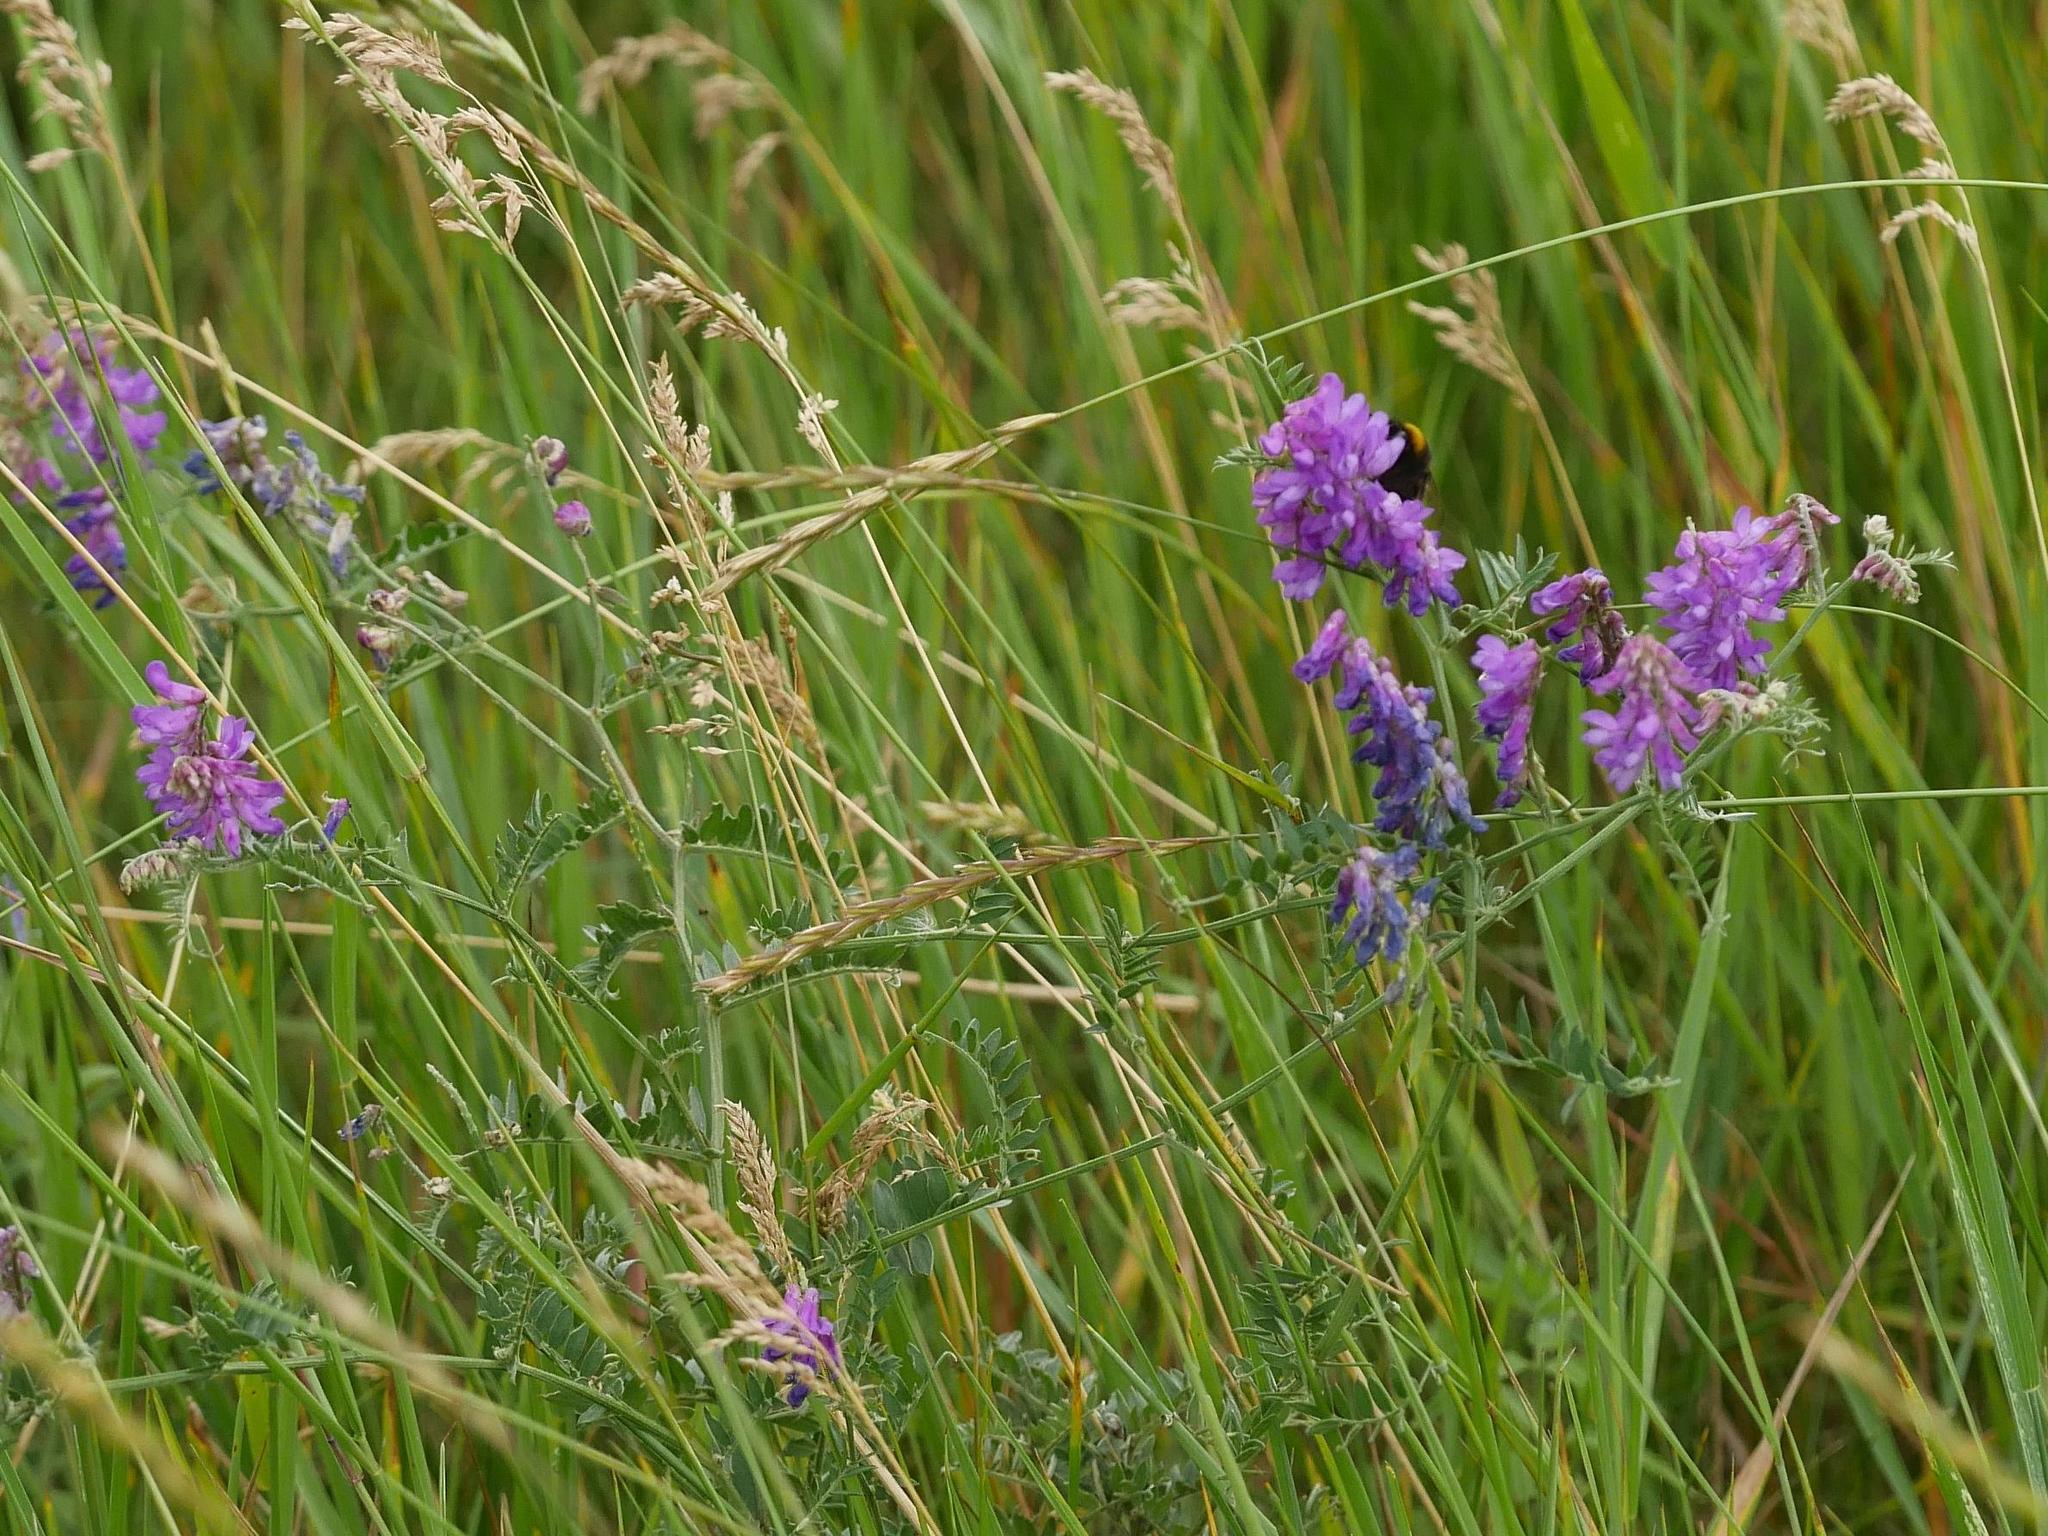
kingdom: Plantae
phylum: Tracheophyta
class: Magnoliopsida
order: Fabales
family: Fabaceae
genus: Vicia
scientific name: Vicia cracca
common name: Bird vetch
